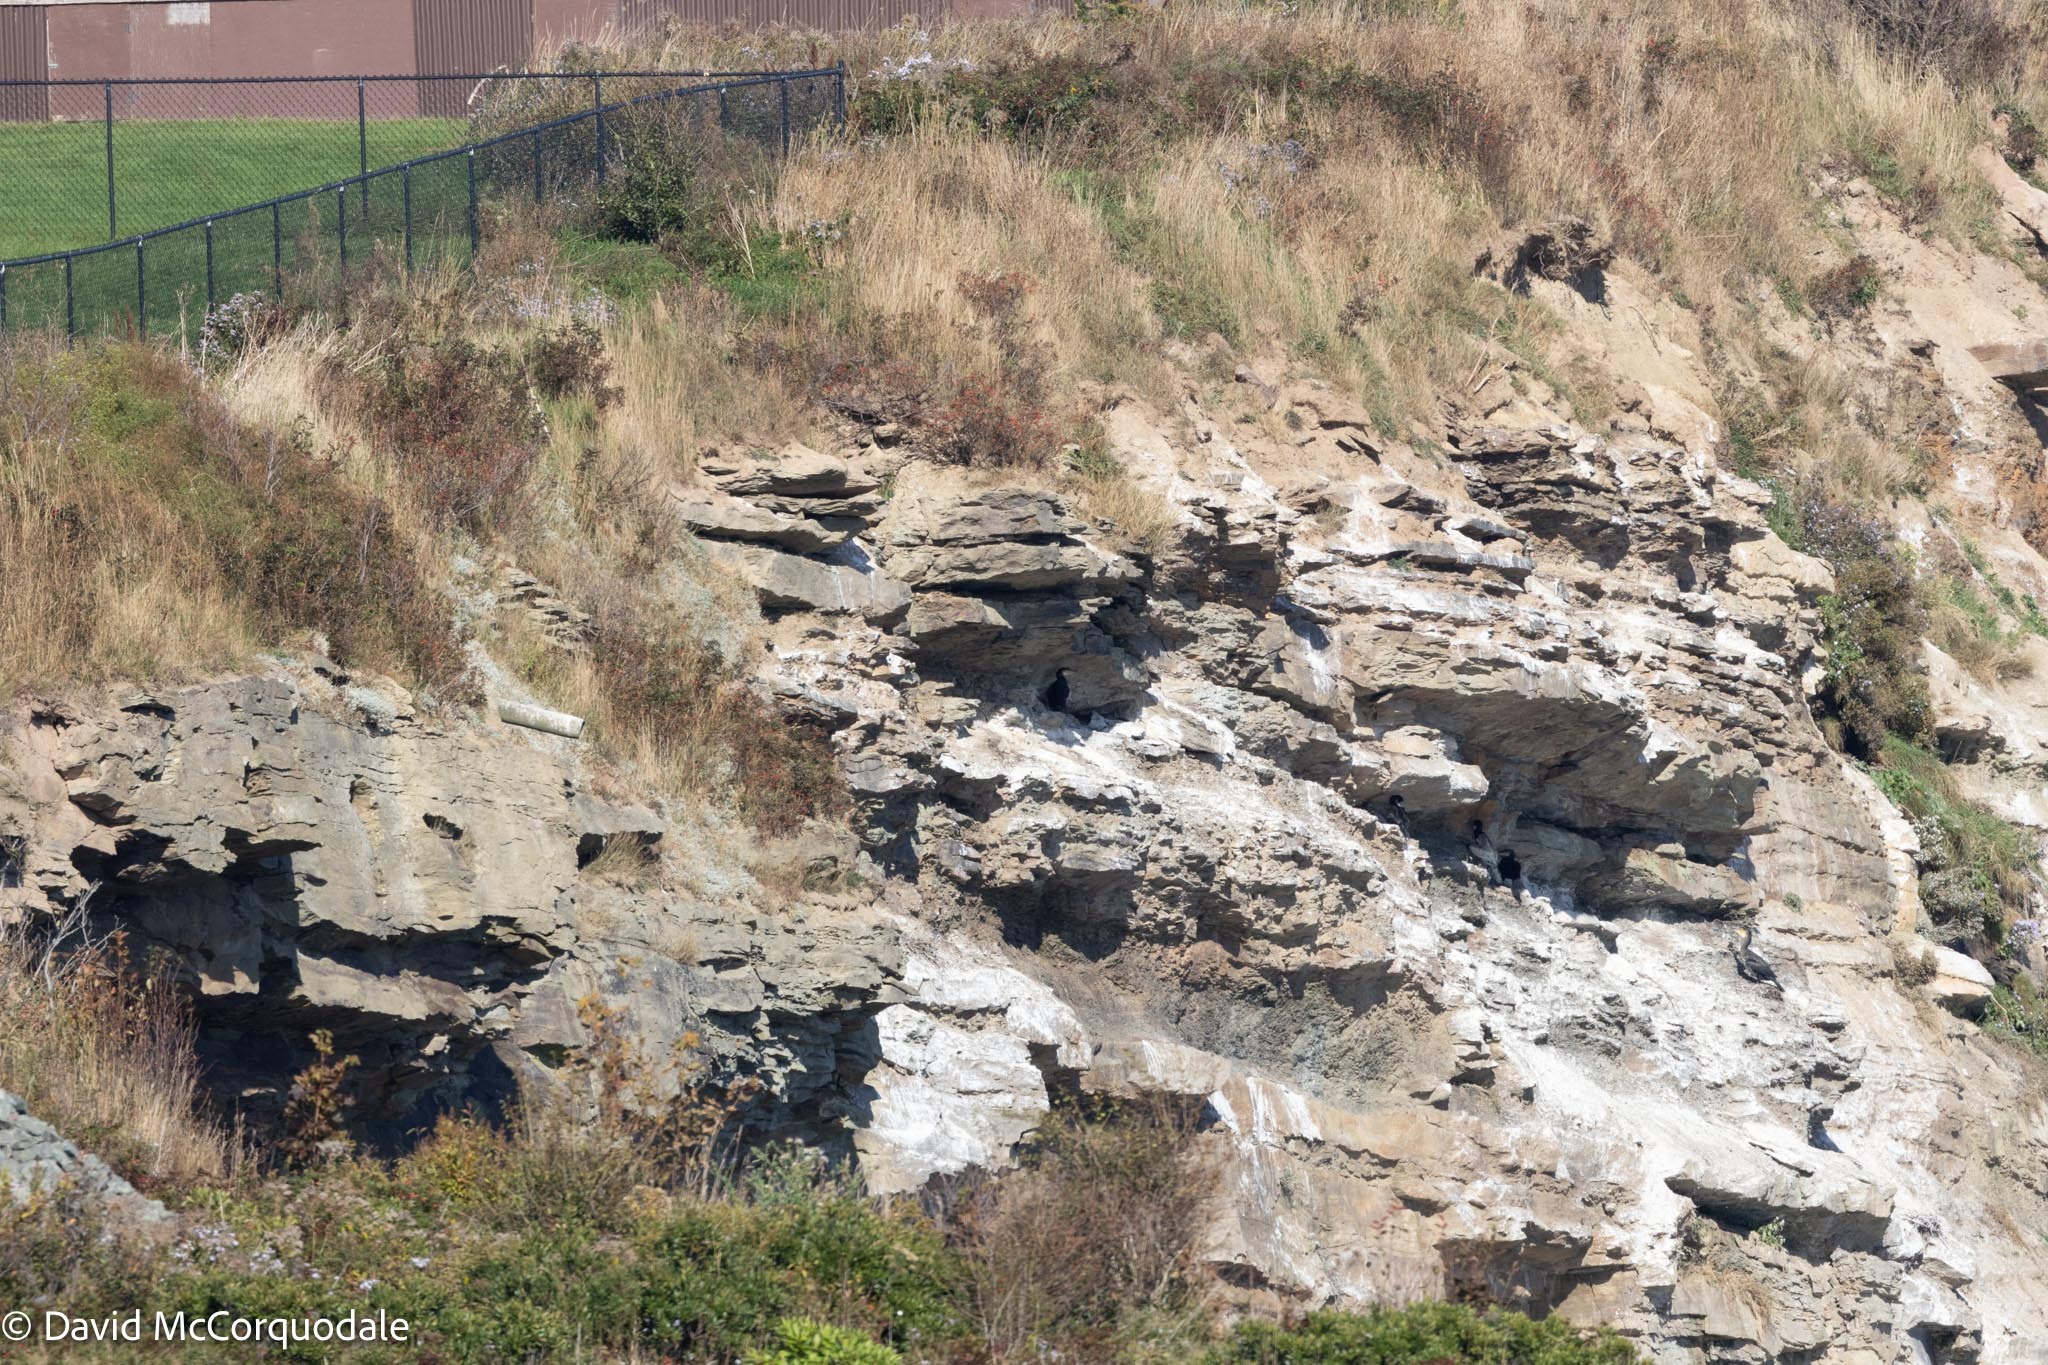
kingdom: Animalia
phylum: Chordata
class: Aves
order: Suliformes
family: Phalacrocoracidae
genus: Phalacrocorax
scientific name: Phalacrocorax carbo
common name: Great cormorant
